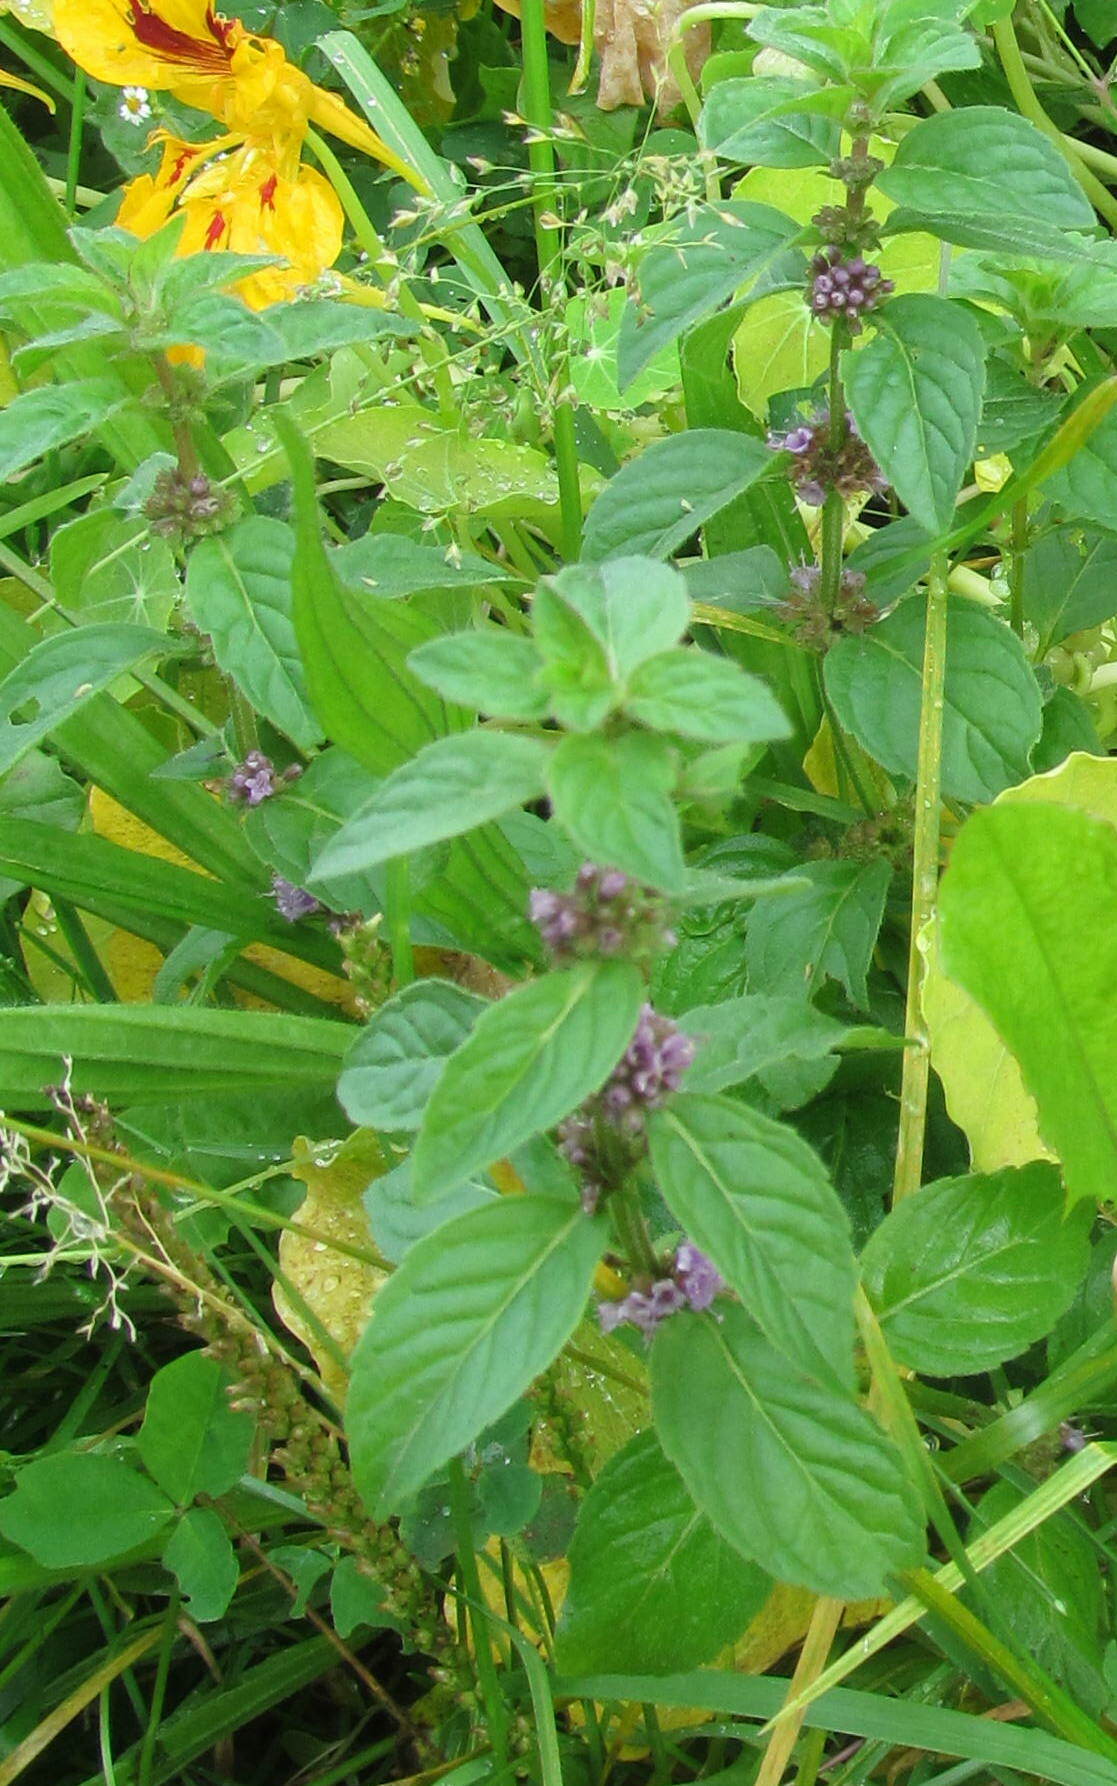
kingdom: Plantae
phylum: Tracheophyta
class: Magnoliopsida
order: Lamiales
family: Lamiaceae
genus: Mentha
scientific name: Mentha arvensis
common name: Corn mint
